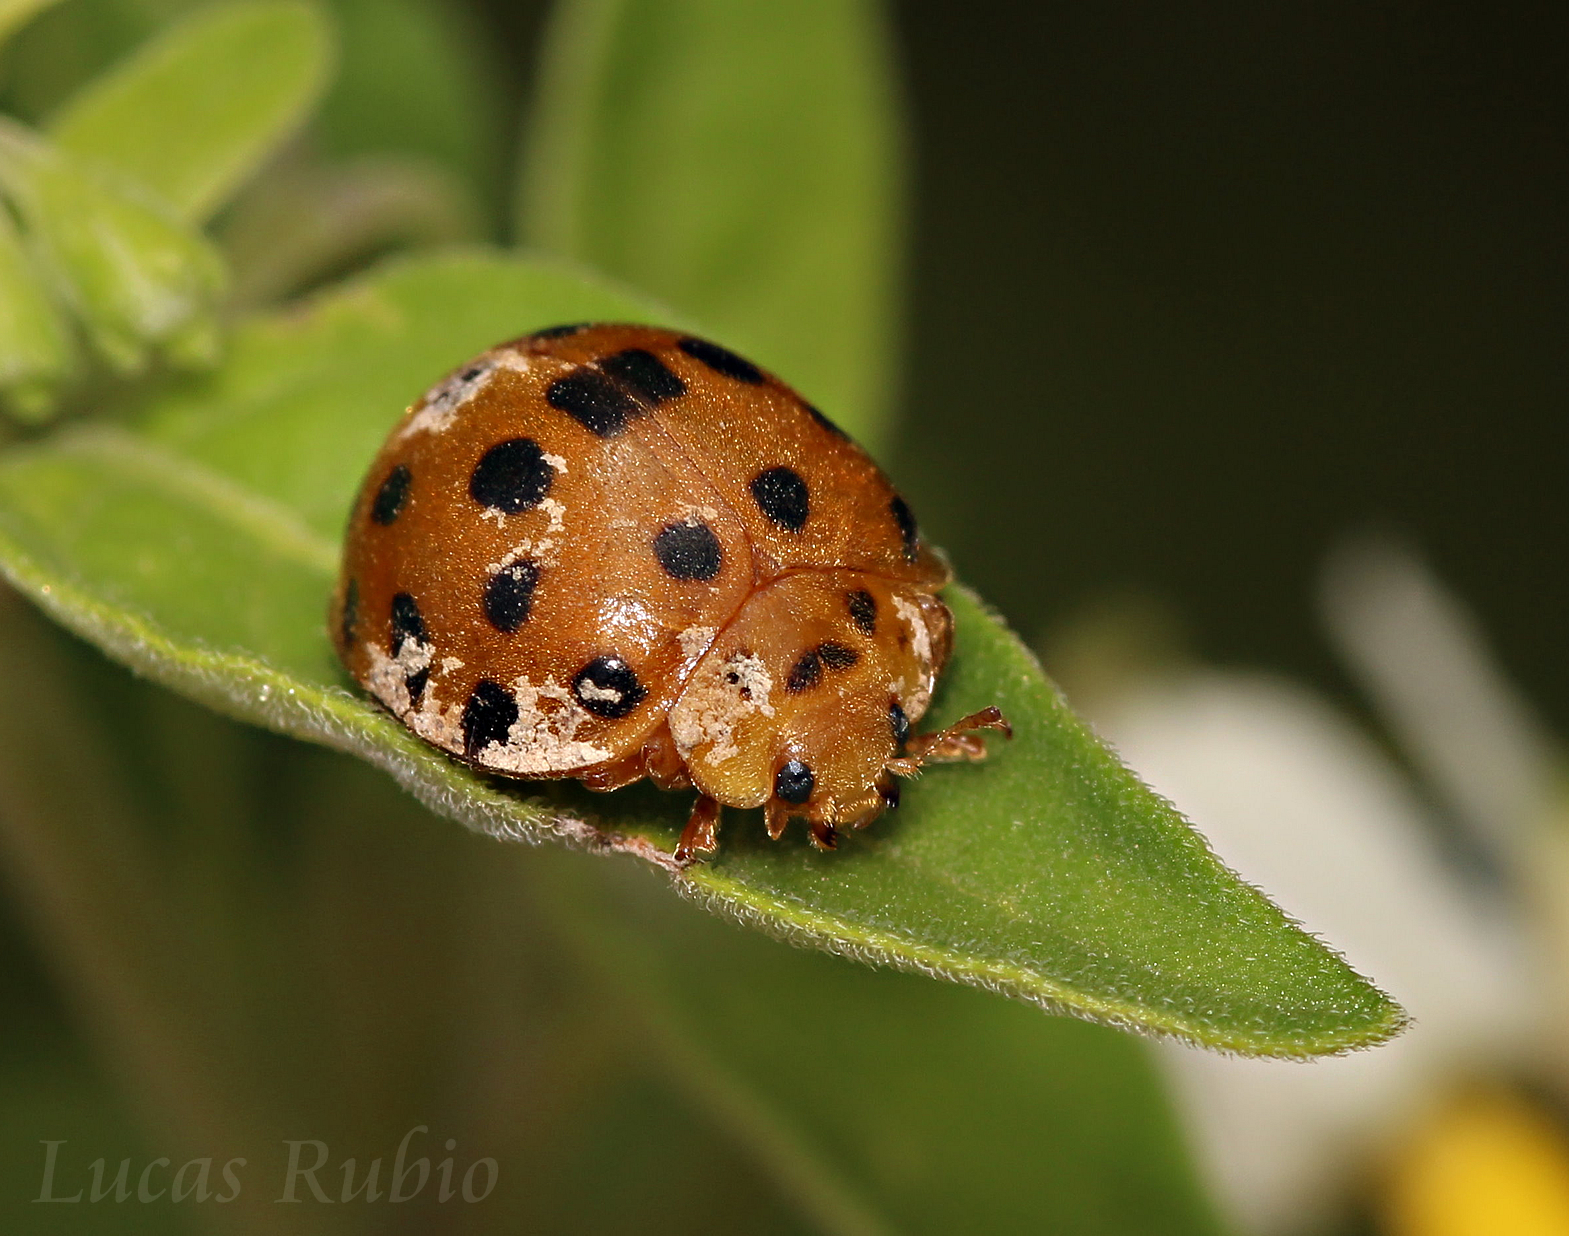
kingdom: Animalia
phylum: Arthropoda
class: Insecta
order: Coleoptera
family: Coccinellidae
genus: Henosepilachna
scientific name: Henosepilachna vigintioctopunctata
